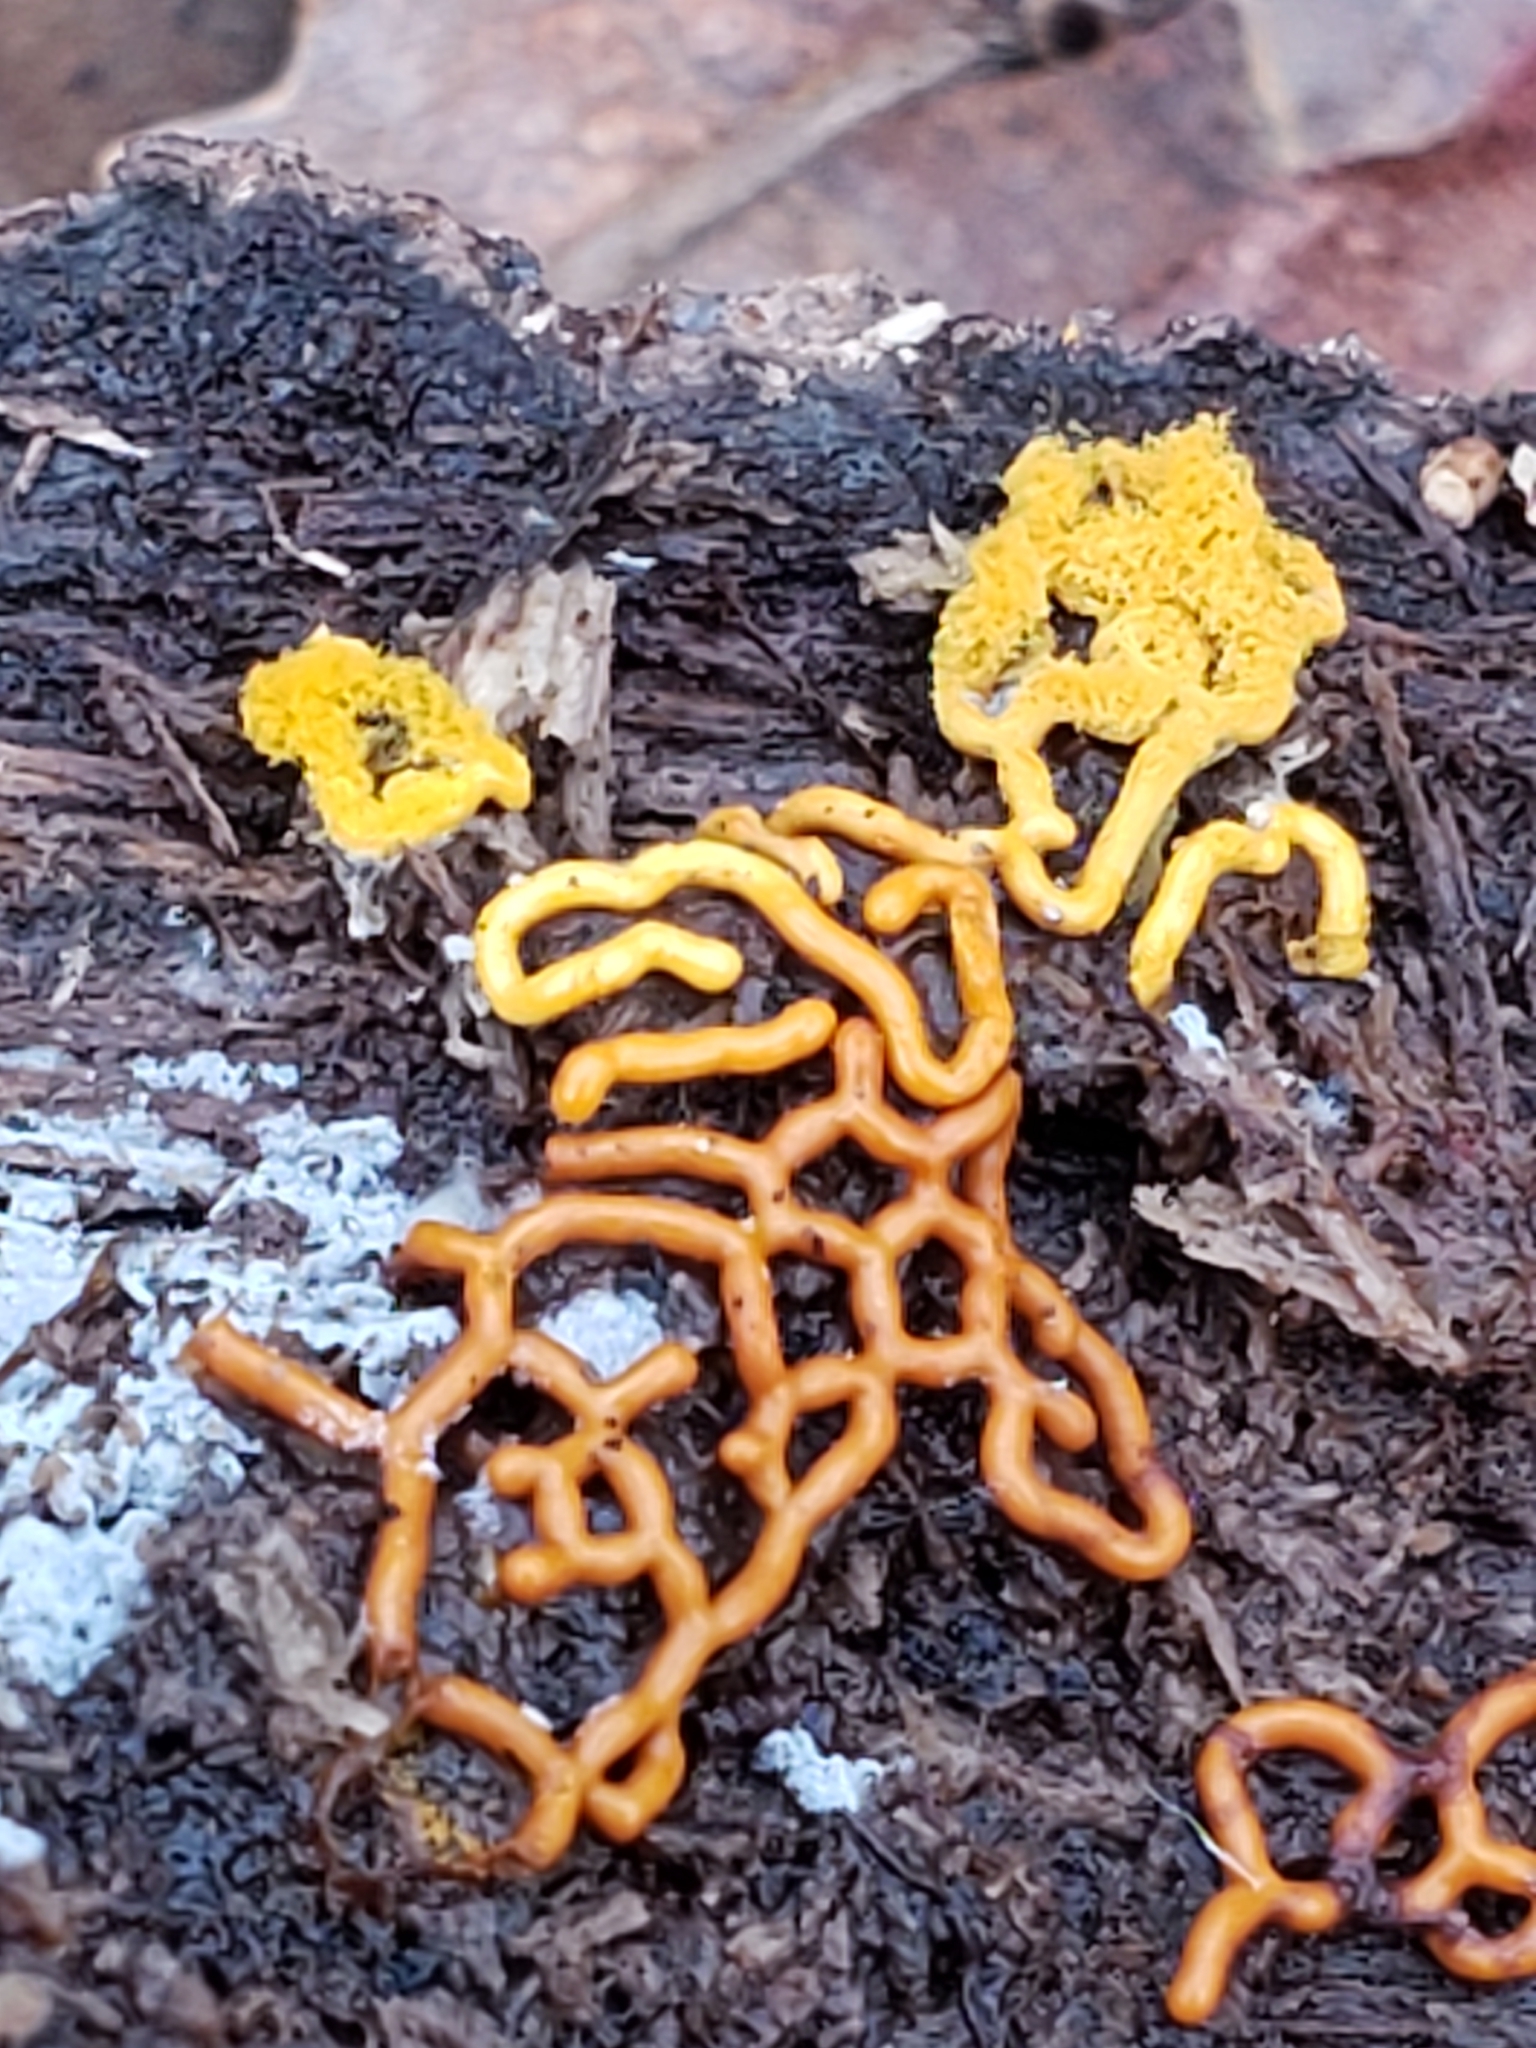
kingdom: Protozoa
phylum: Mycetozoa
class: Myxomycetes
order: Trichiales
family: Arcyriaceae
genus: Hemitrichia
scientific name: Hemitrichia serpula
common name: Pretzel slime mold
